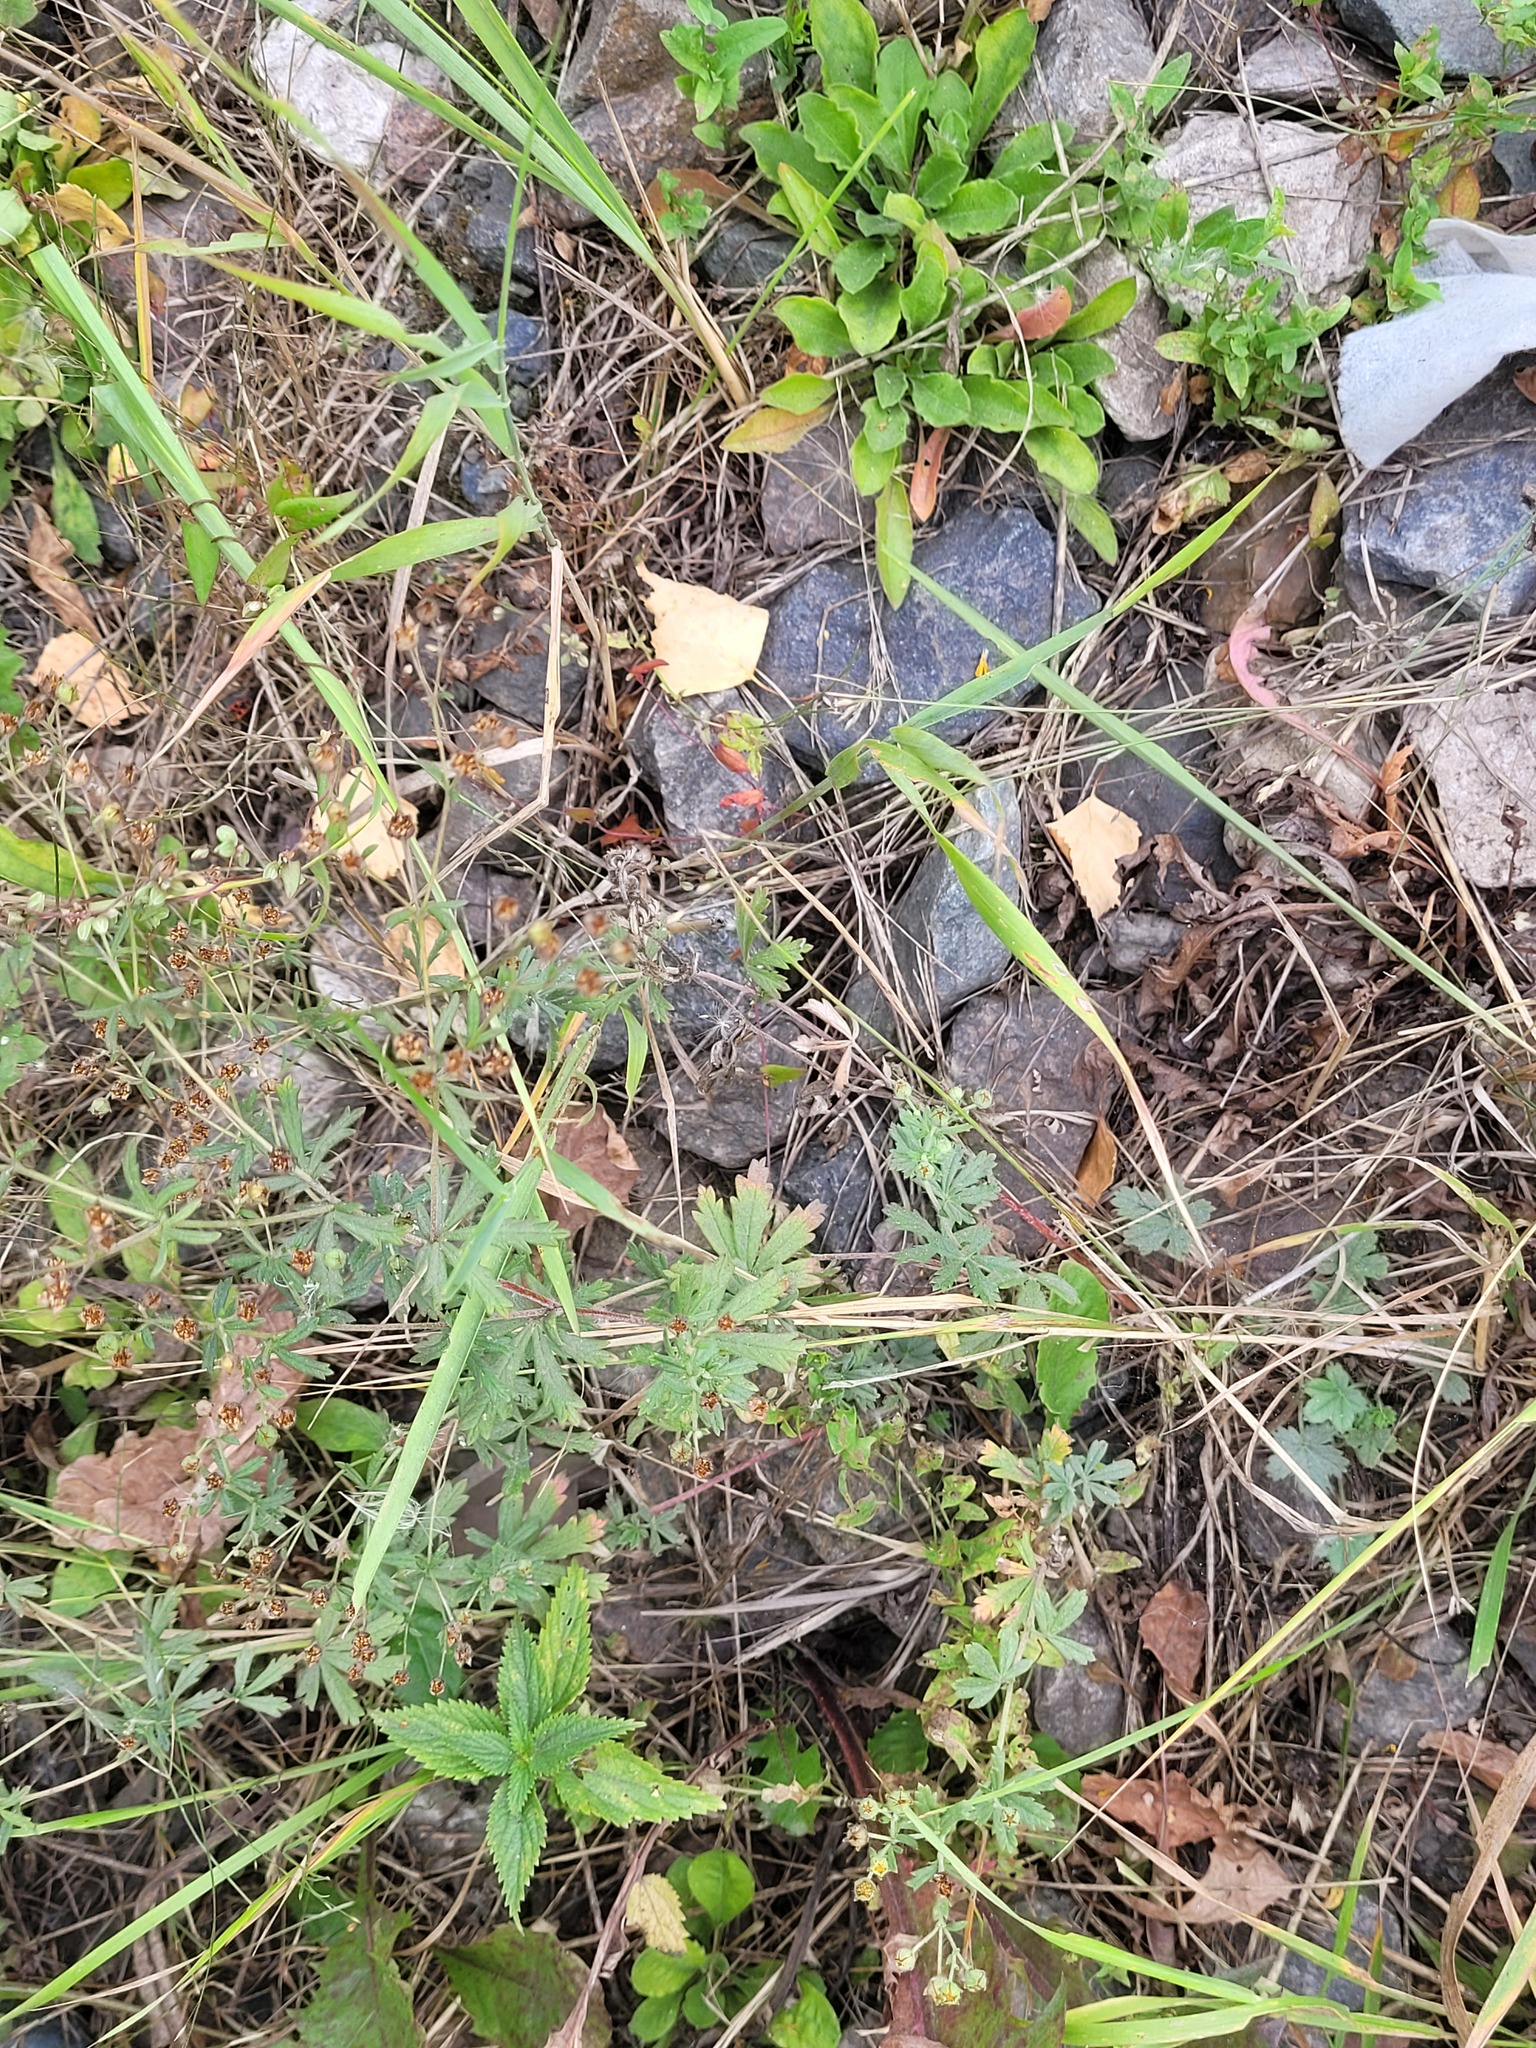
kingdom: Plantae
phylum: Tracheophyta
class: Magnoliopsida
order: Rosales
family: Rosaceae
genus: Potentilla
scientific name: Potentilla argentea
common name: Hoary cinquefoil
